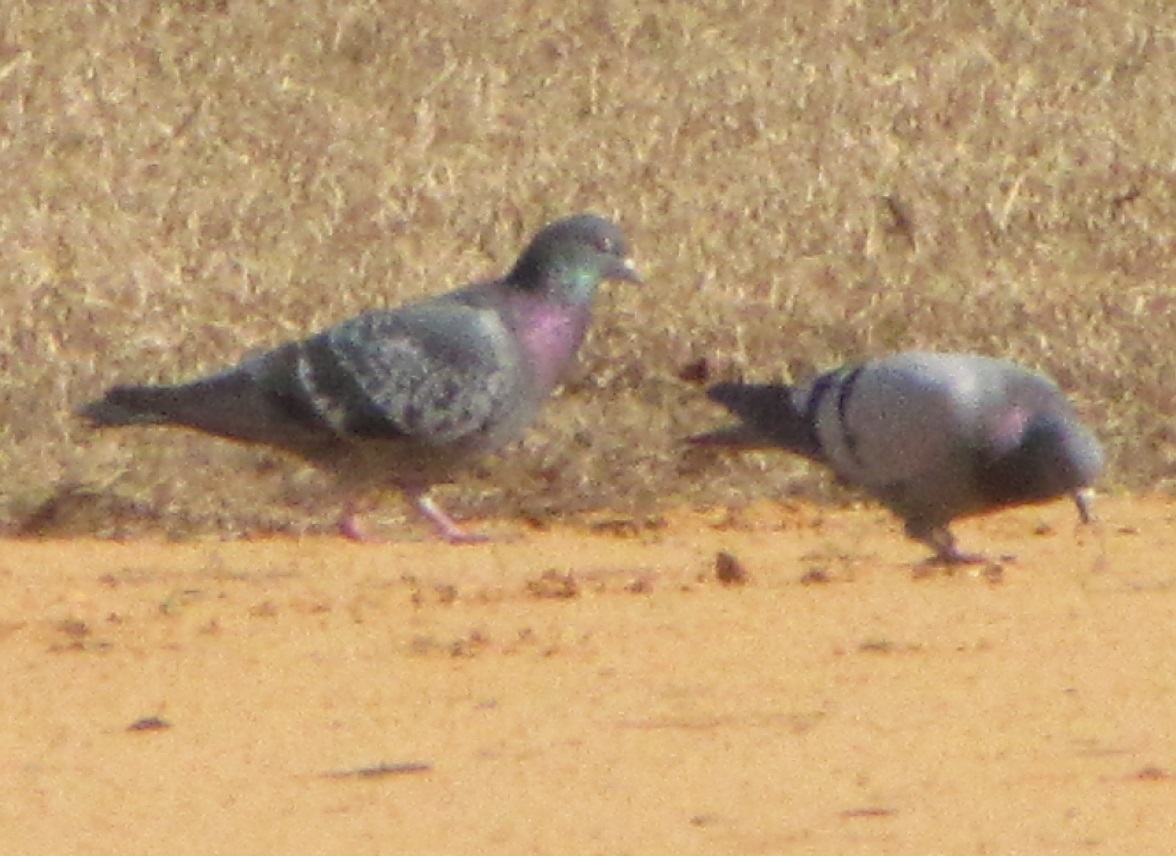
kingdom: Animalia
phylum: Chordata
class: Aves
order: Columbiformes
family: Columbidae
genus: Columba
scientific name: Columba livia
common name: Rock pigeon
